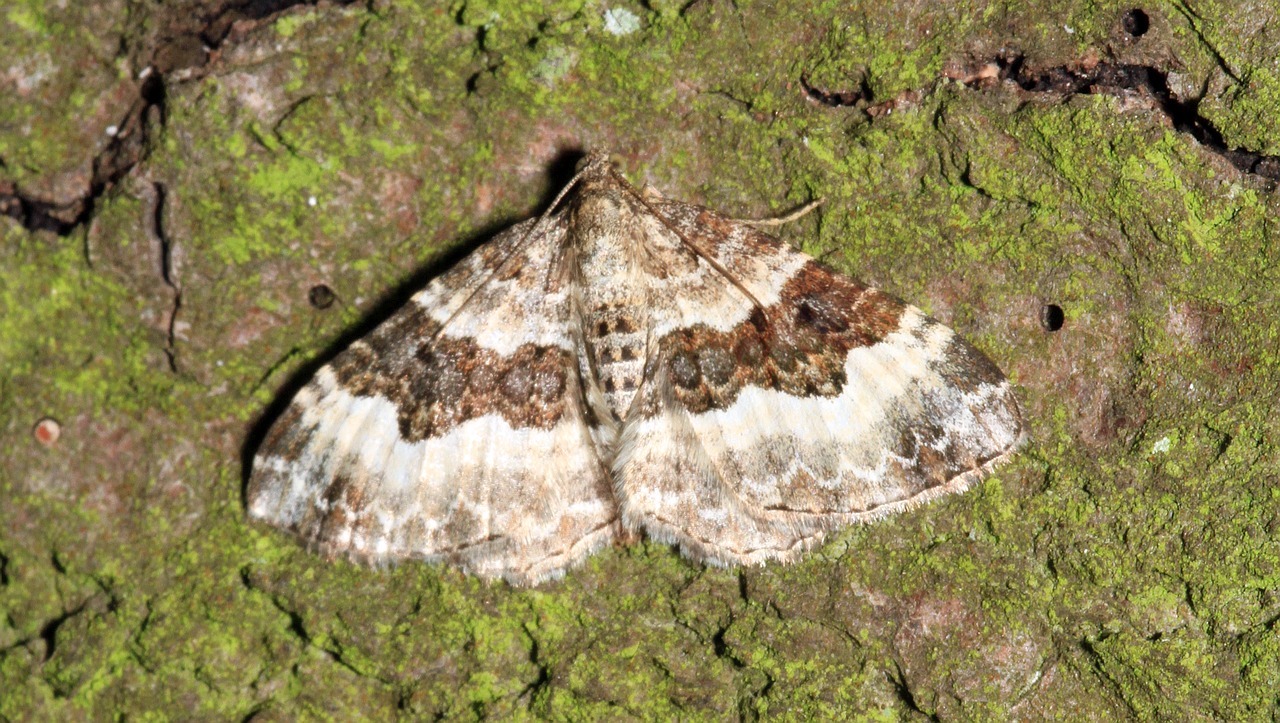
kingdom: Animalia
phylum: Arthropoda
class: Insecta
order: Lepidoptera
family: Geometridae
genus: Epirrhoe
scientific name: Epirrhoe alternata
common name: Common carpet
